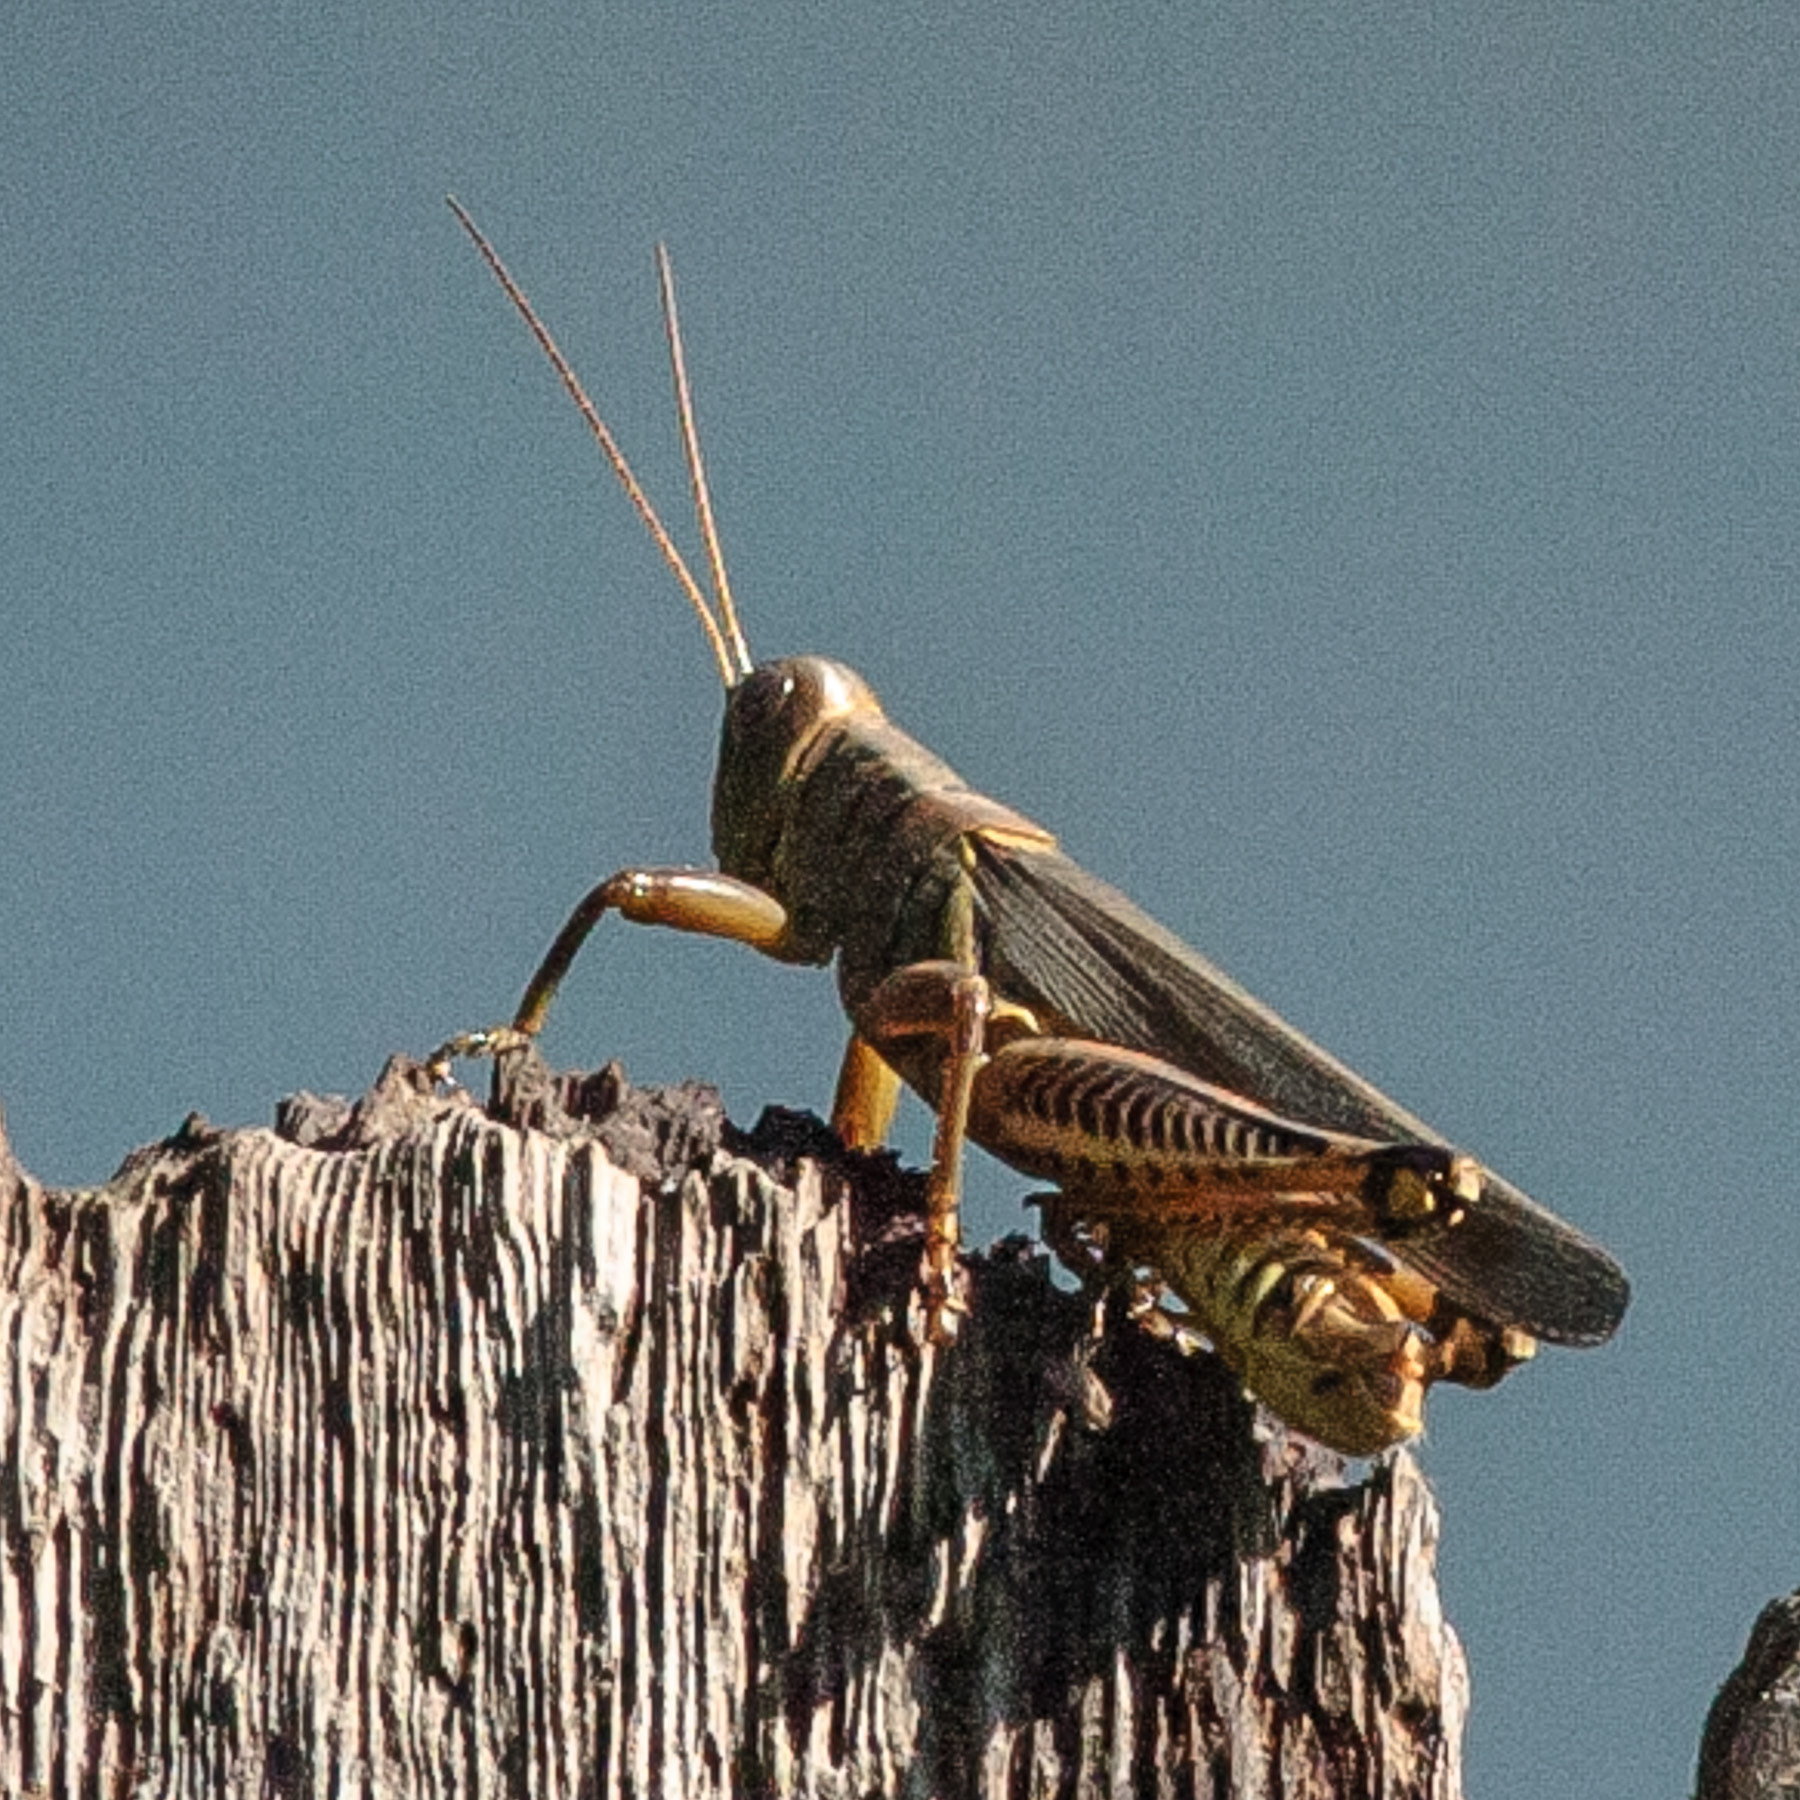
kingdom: Animalia
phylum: Arthropoda
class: Insecta
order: Orthoptera
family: Acrididae
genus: Melanoplus
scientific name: Melanoplus differentialis
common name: Differential grasshopper
